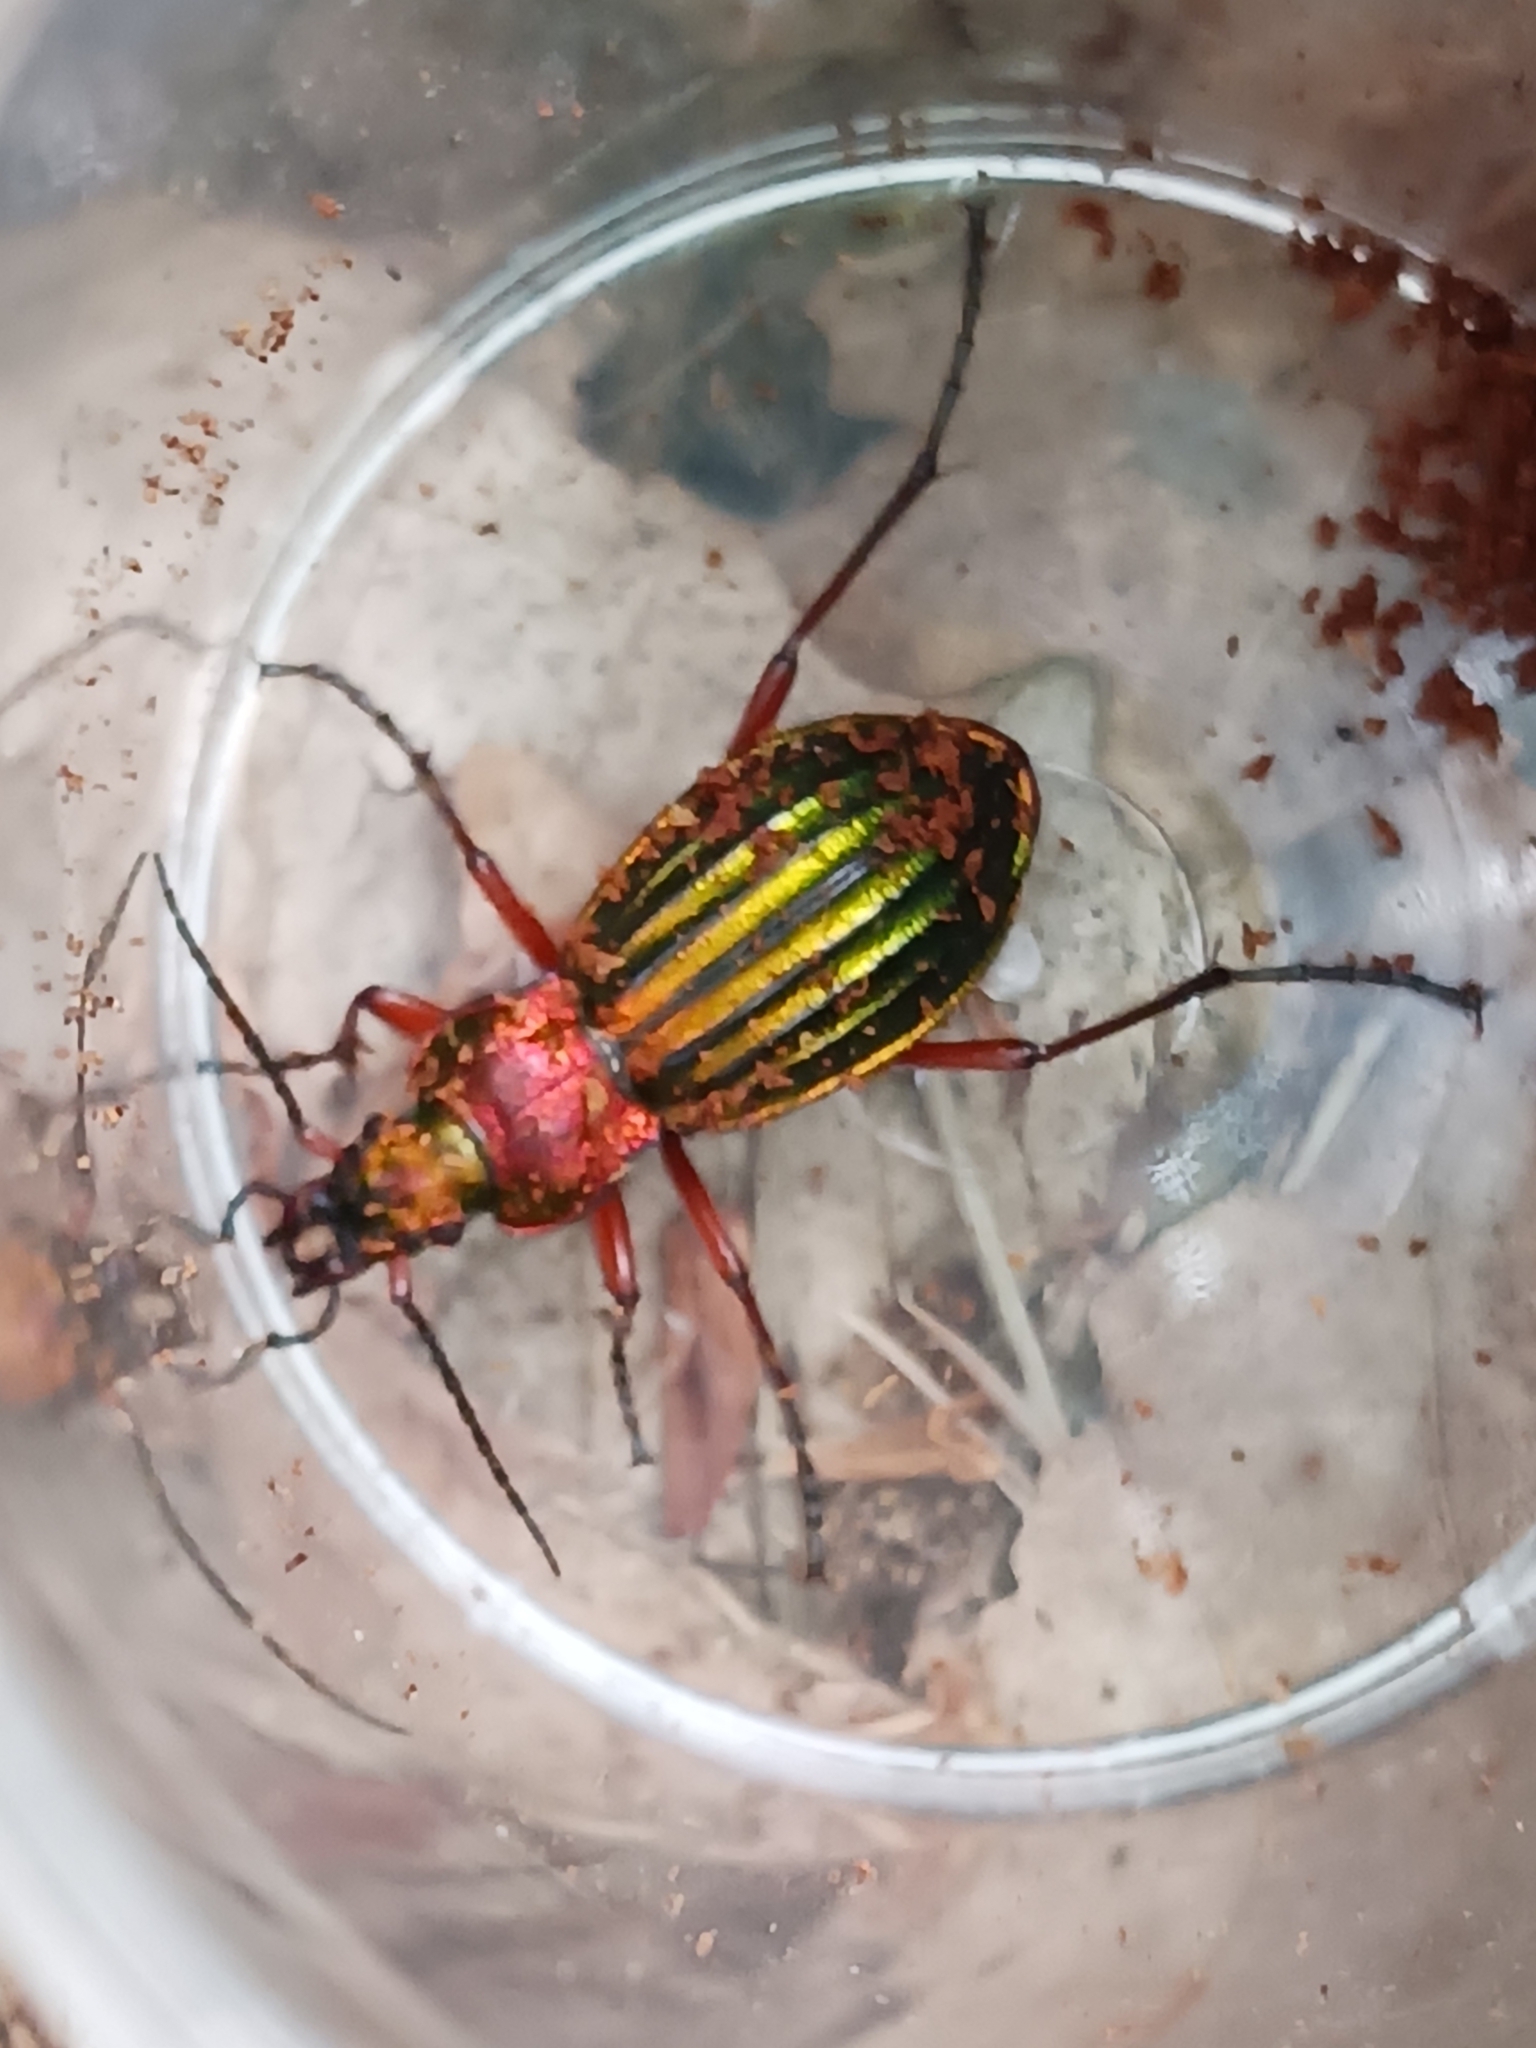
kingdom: Animalia
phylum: Arthropoda
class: Insecta
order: Coleoptera
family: Carabidae
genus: Carabus
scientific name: Carabus auronitens
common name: Carabus auronitens
